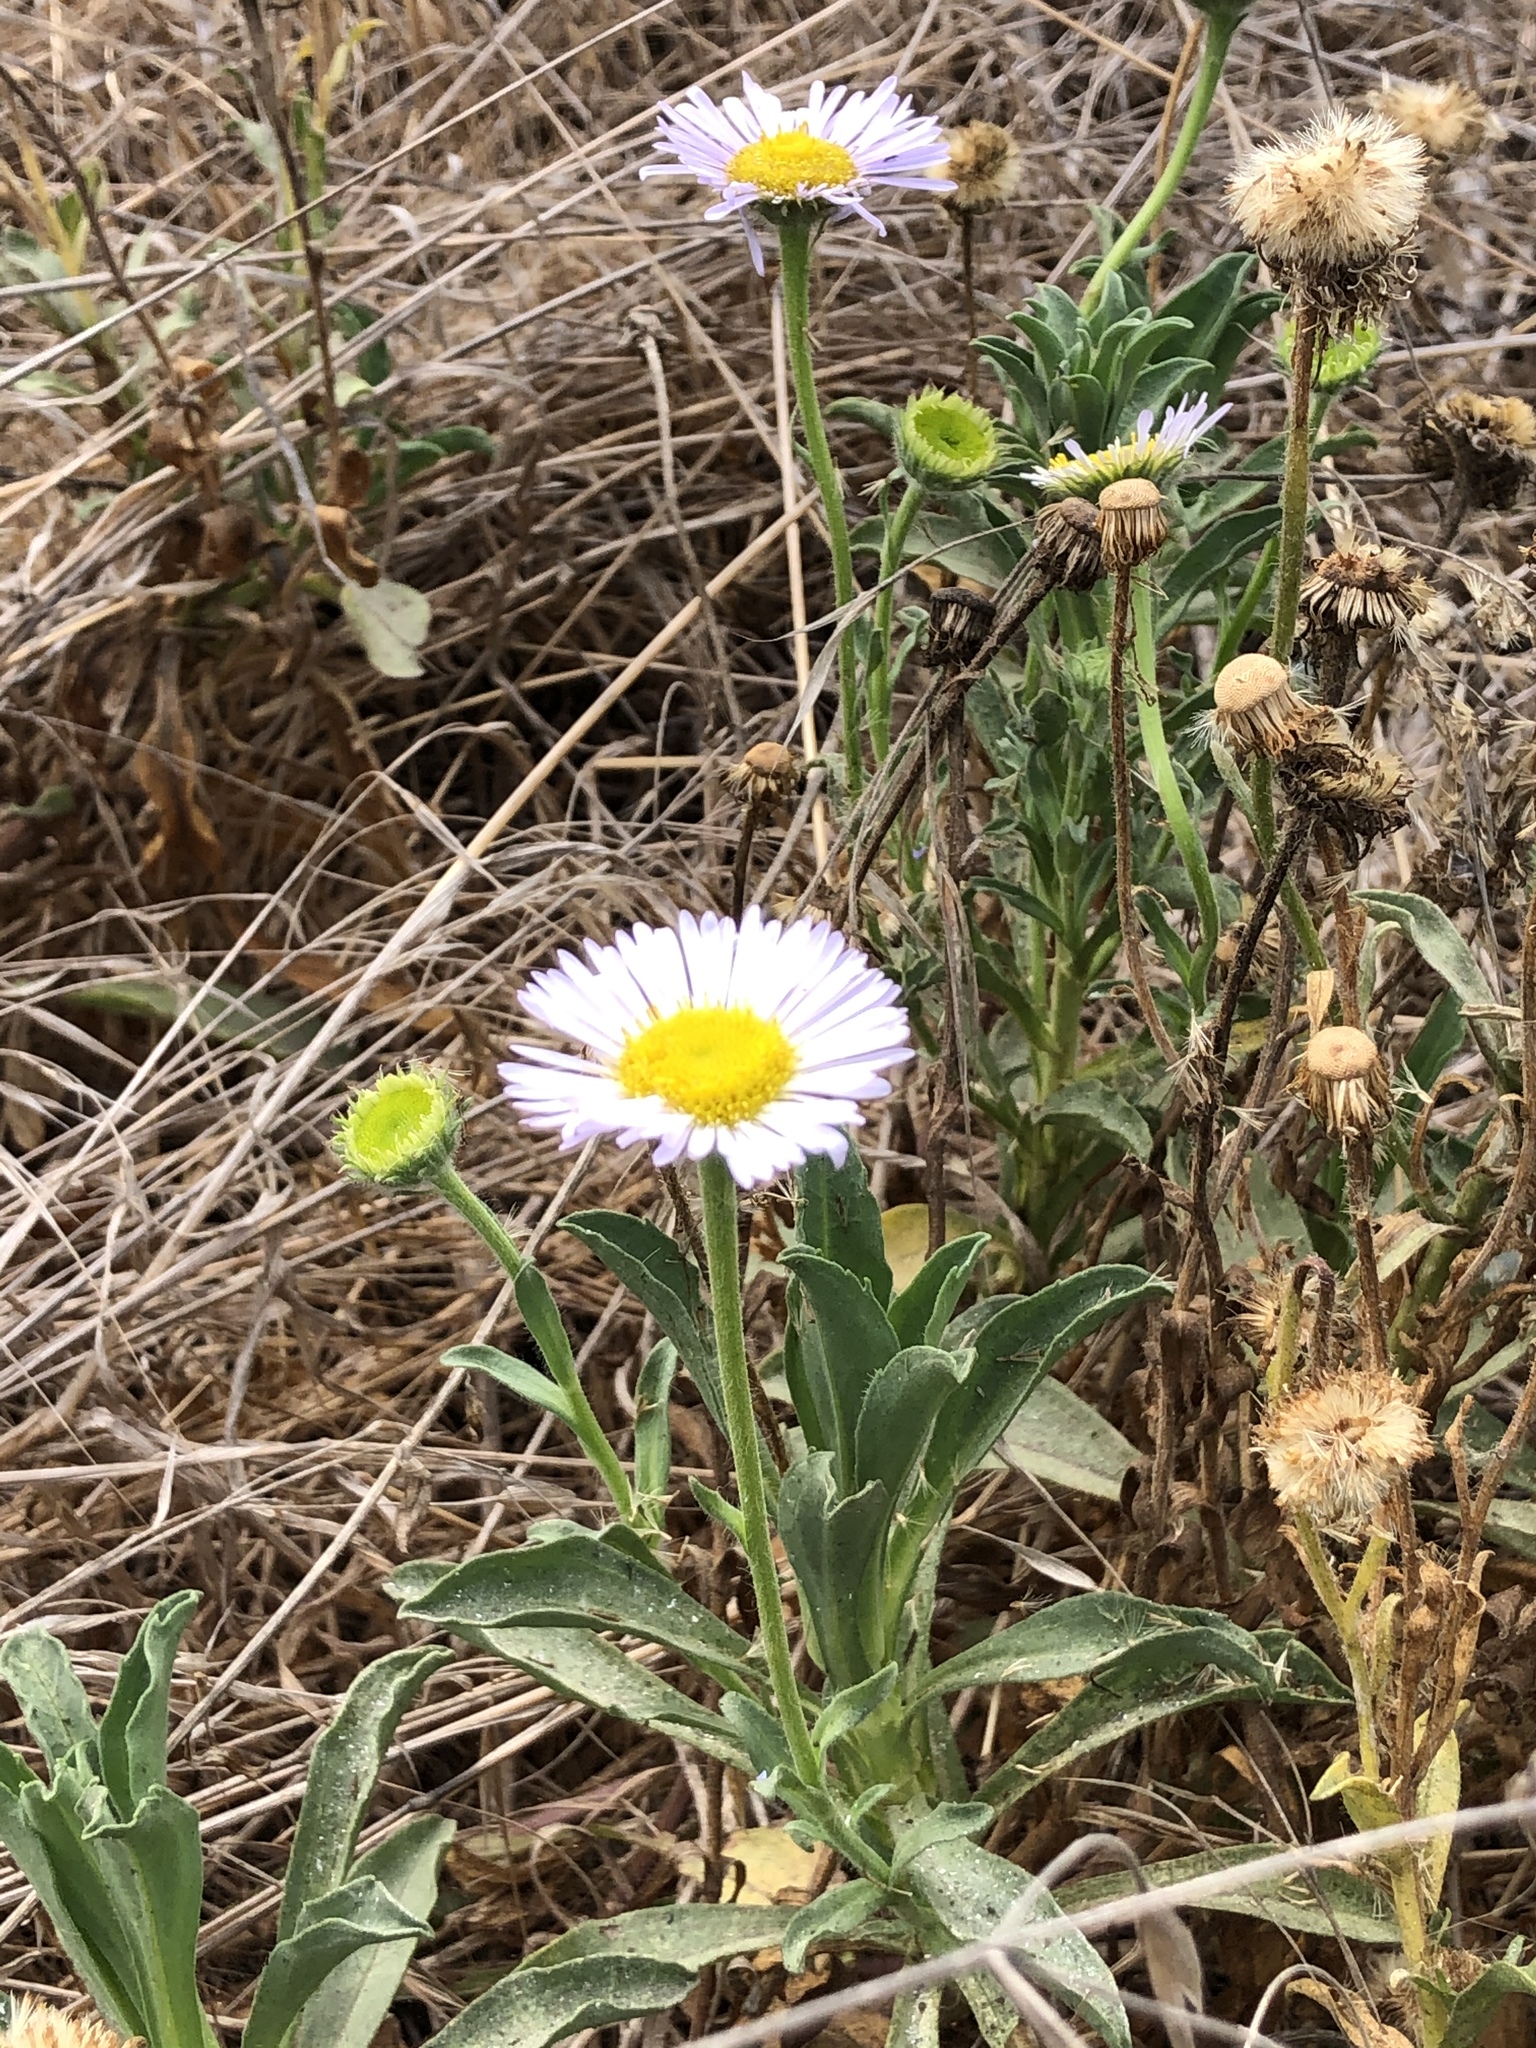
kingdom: Plantae
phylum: Tracheophyta
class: Magnoliopsida
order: Asterales
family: Asteraceae
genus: Erigeron
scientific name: Erigeron glaucus
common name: Seaside daisy
